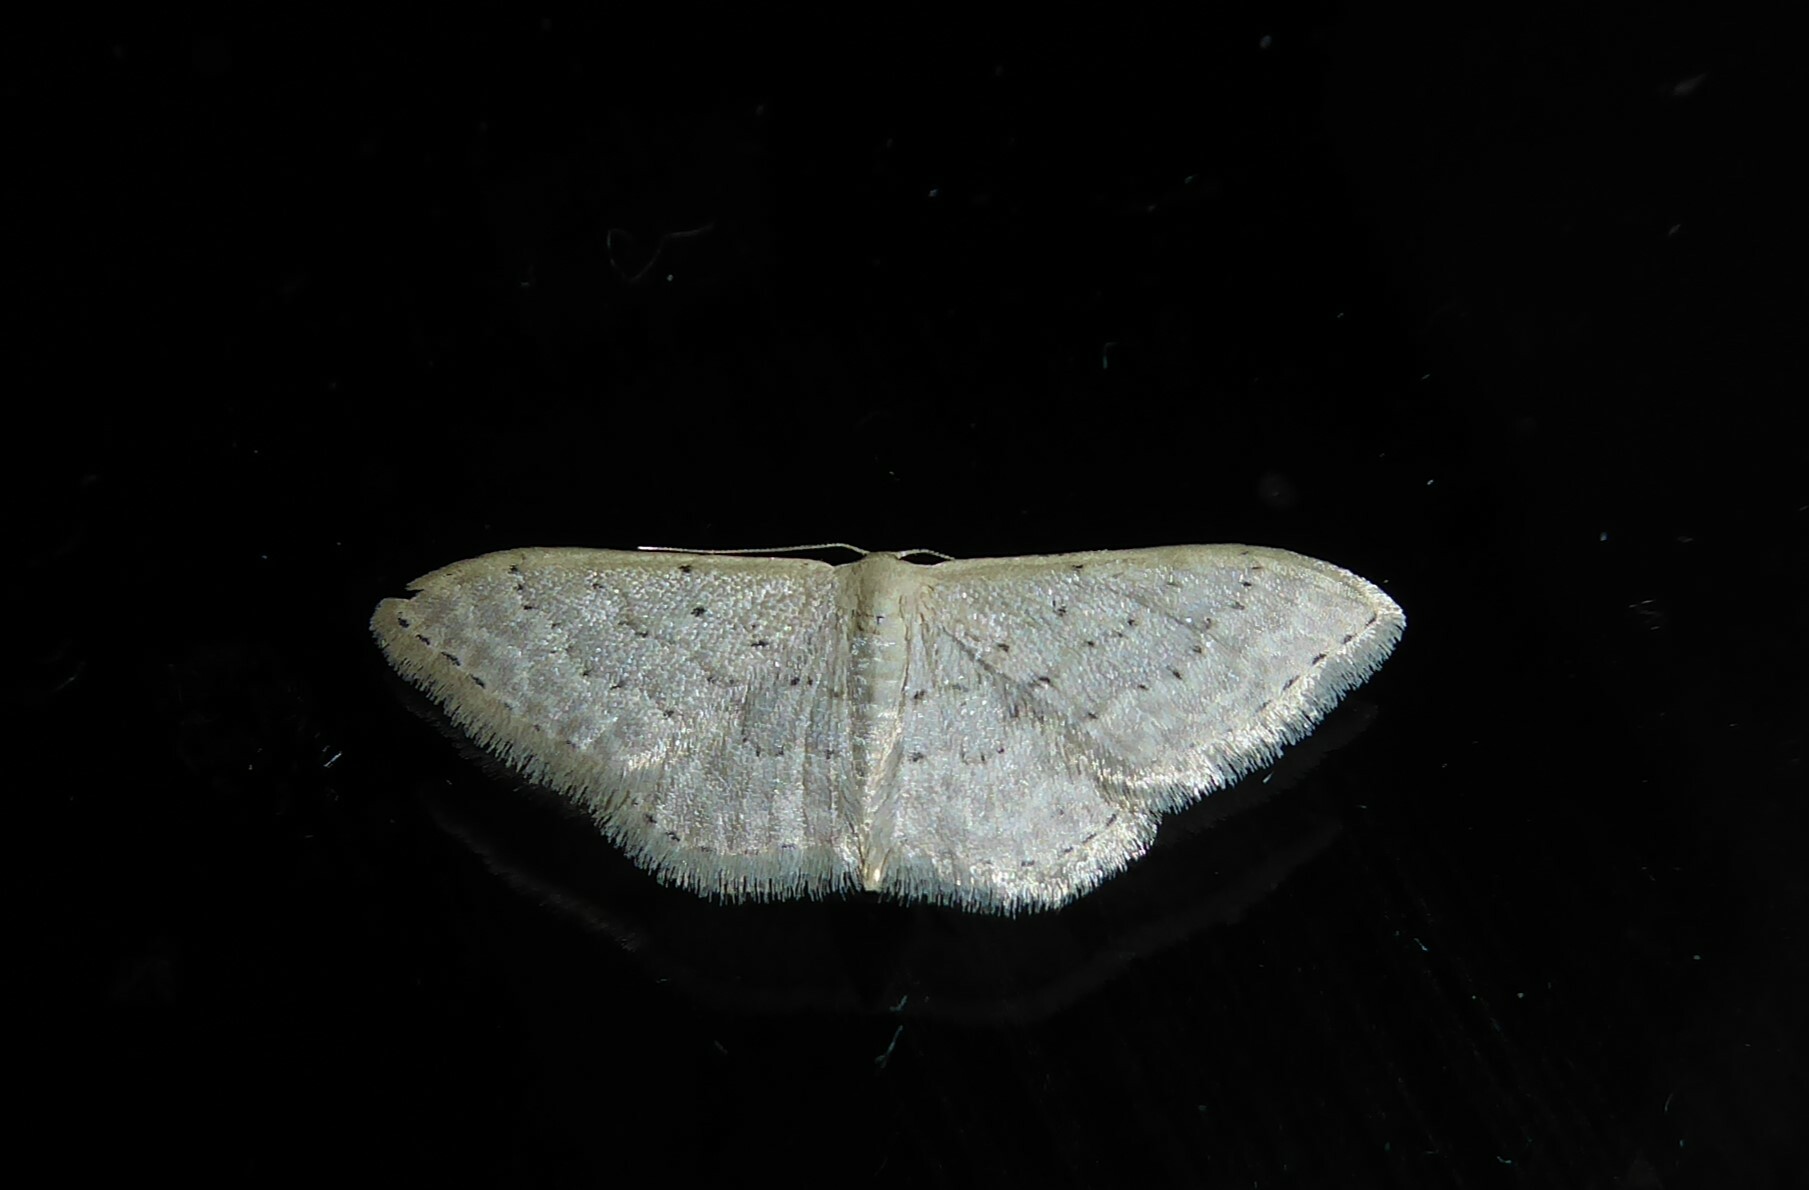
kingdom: Animalia
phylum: Arthropoda
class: Insecta
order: Lepidoptera
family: Geometridae
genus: Idaea
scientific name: Idaea philocosma
